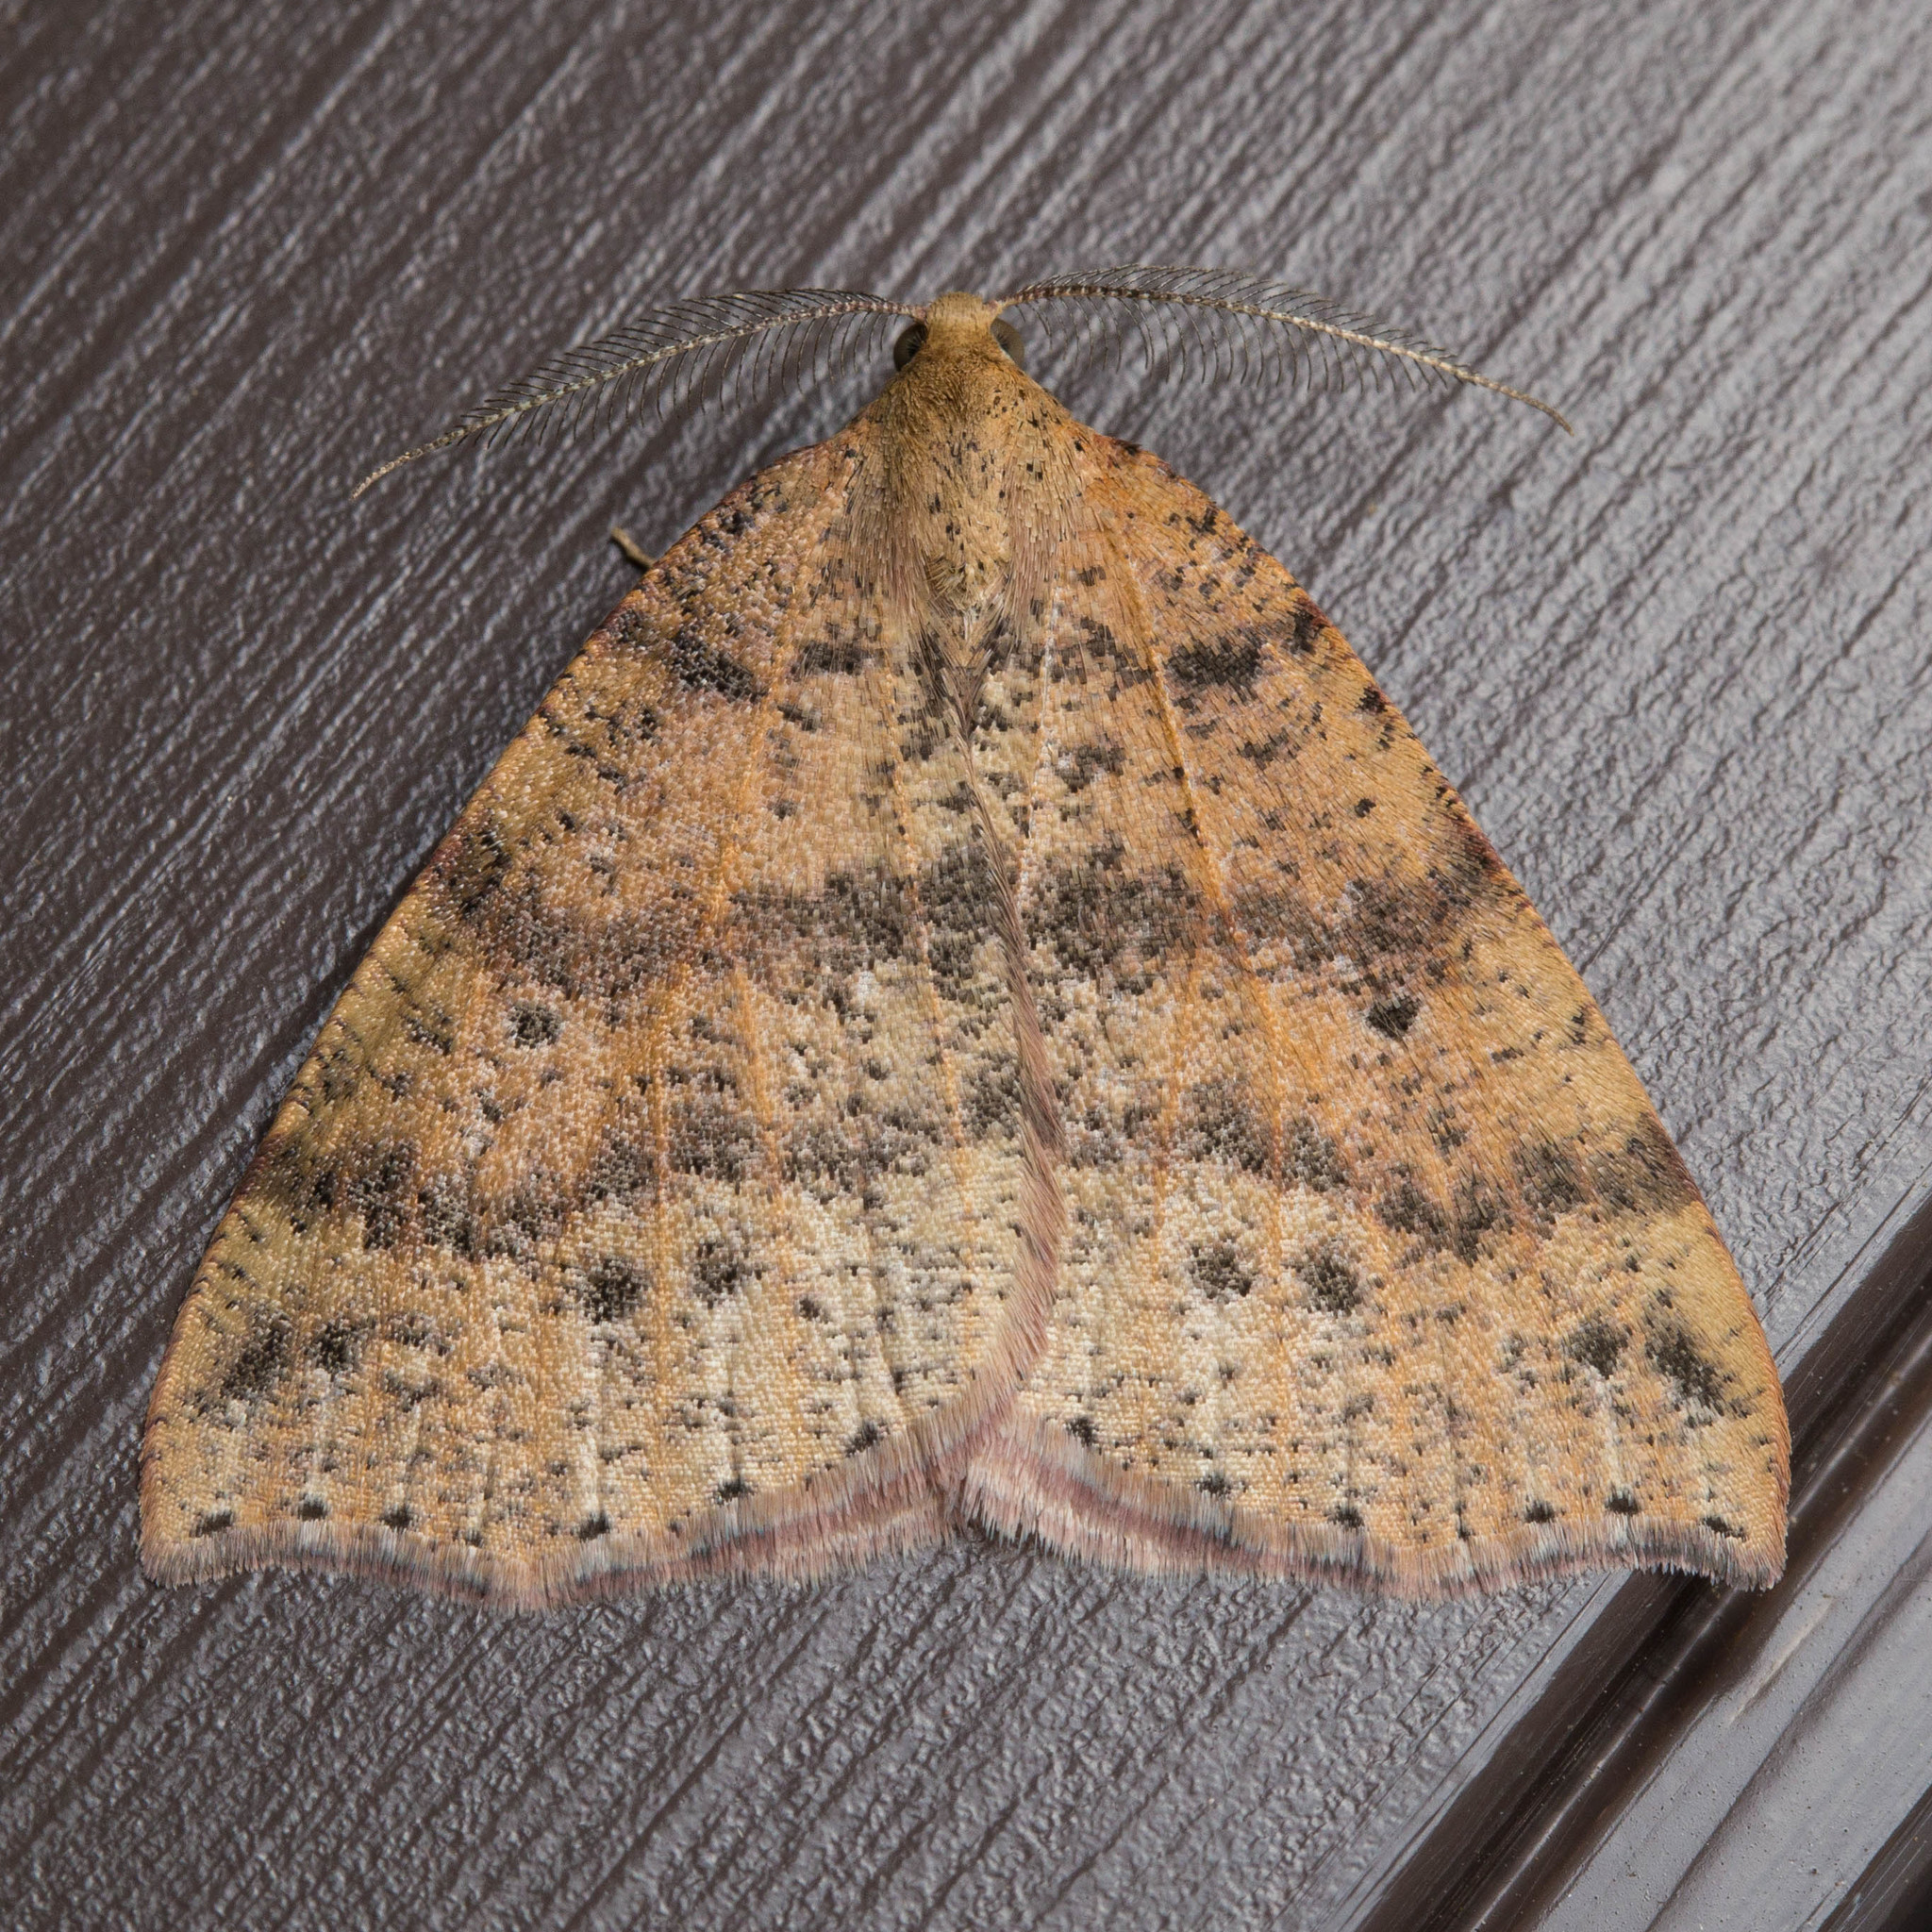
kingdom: Animalia
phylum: Arthropoda
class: Insecta
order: Lepidoptera
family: Geometridae
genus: Drepanulatrix
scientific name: Drepanulatrix falcataria
